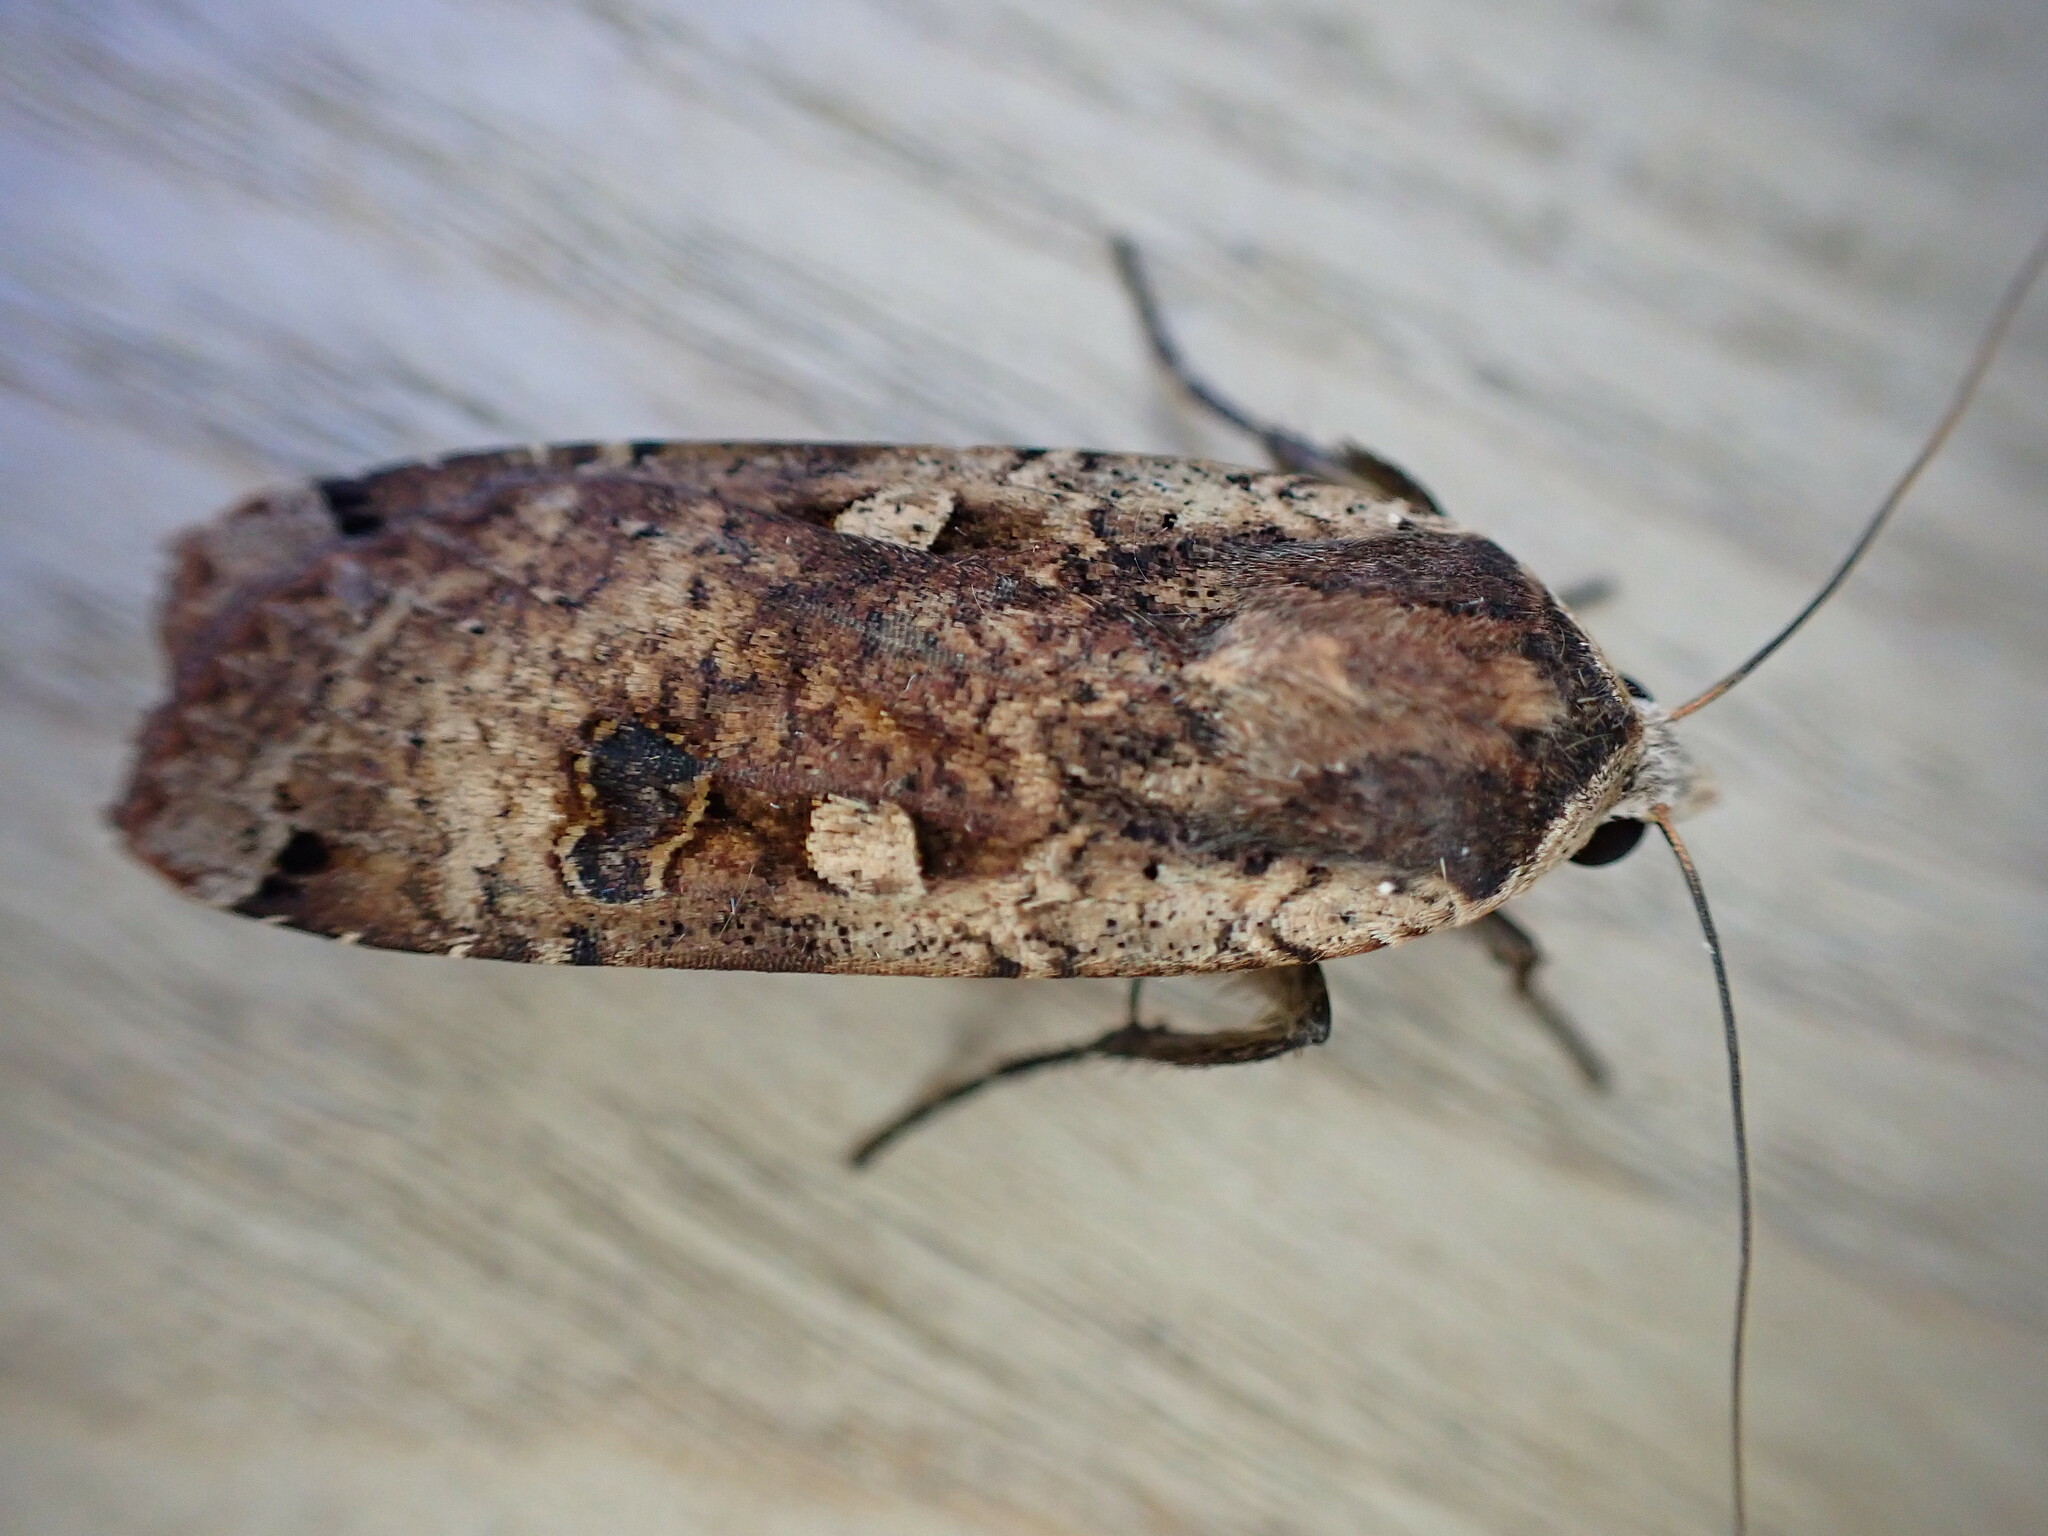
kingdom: Animalia
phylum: Arthropoda
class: Insecta
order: Lepidoptera
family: Noctuidae
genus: Noctua
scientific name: Noctua pronuba
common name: Large yellow underwing
